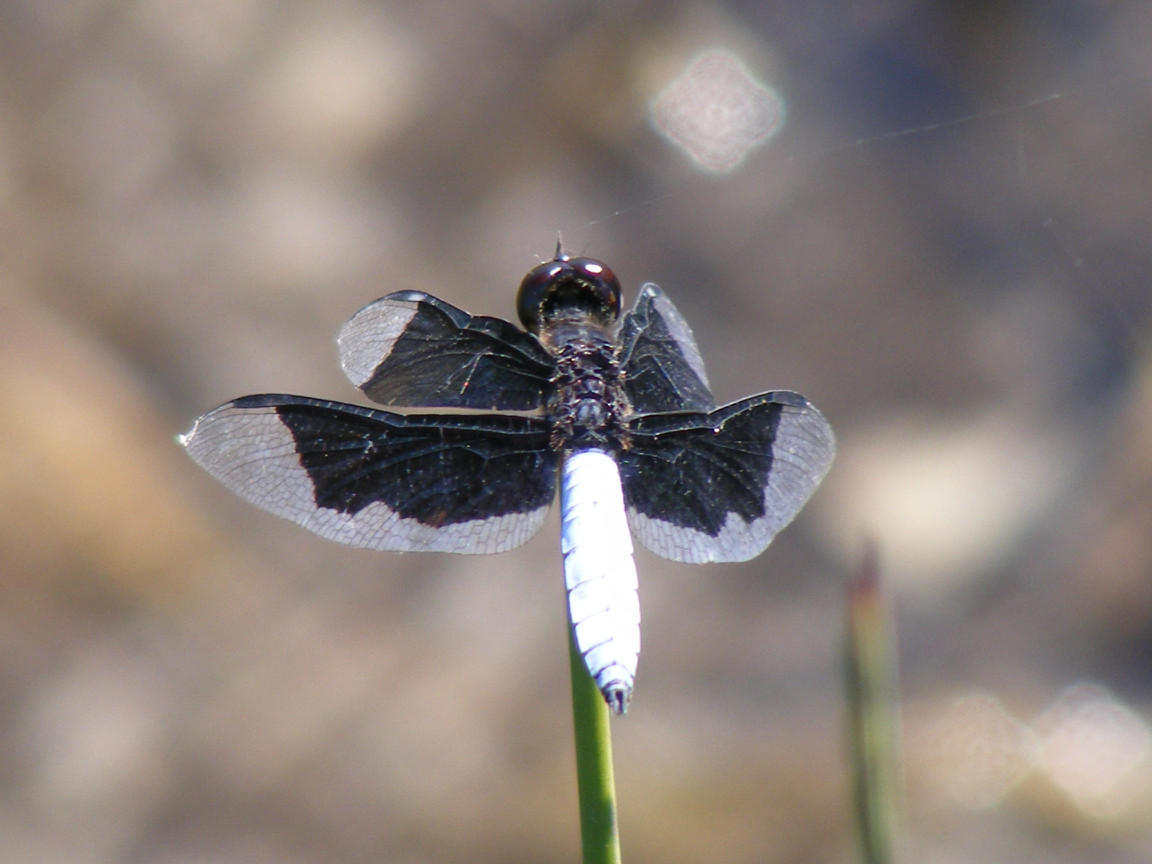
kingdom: Animalia
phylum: Arthropoda
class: Insecta
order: Odonata
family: Libellulidae
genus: Palpopleura
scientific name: Palpopleura lucia
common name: Lucia widow
